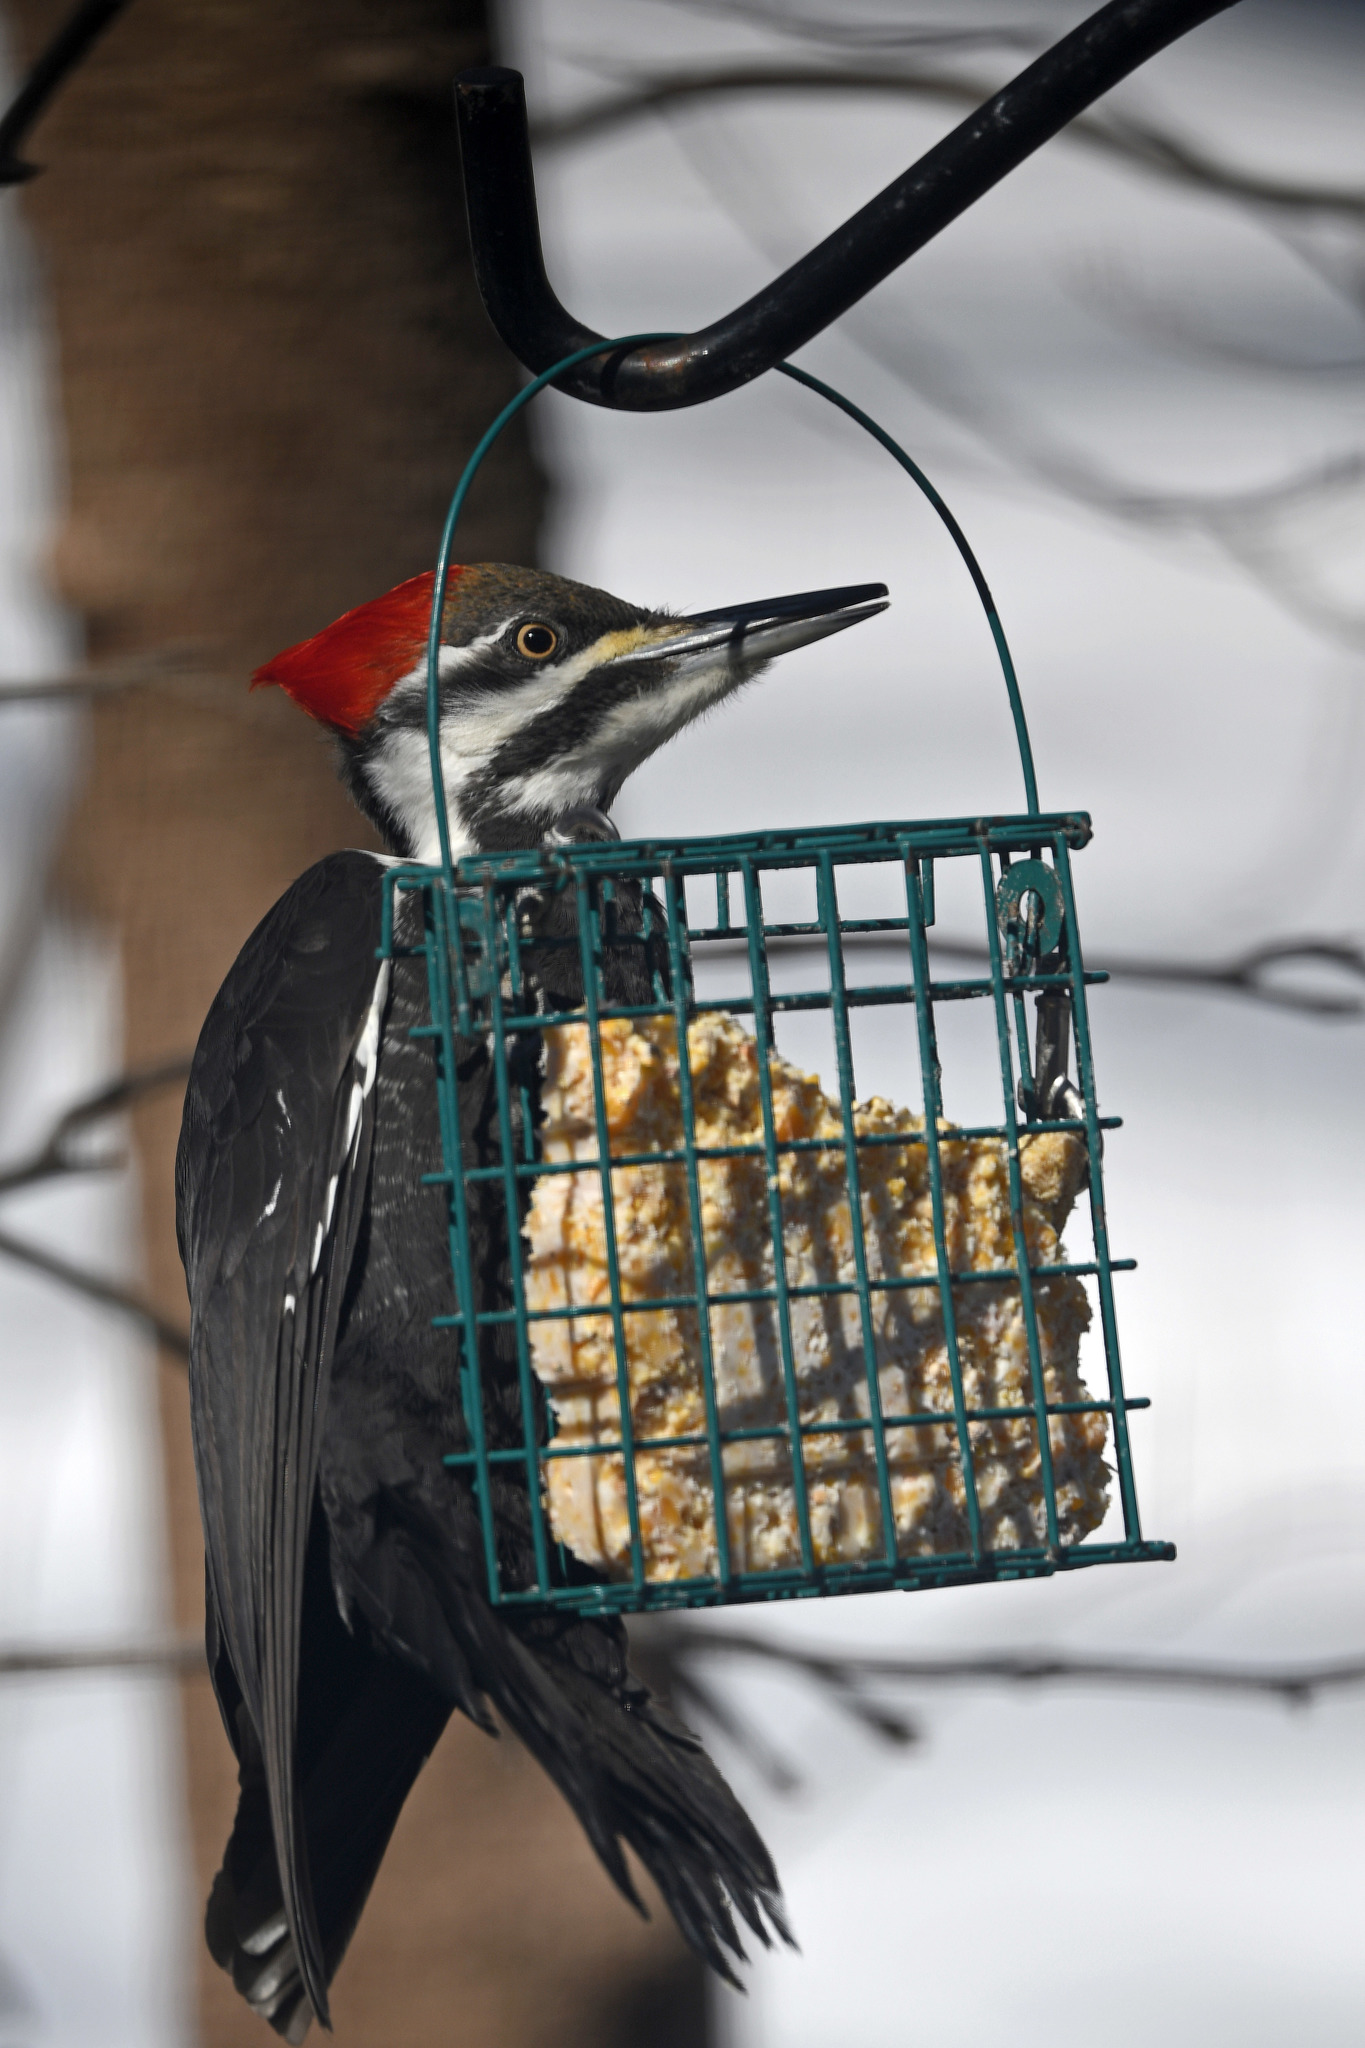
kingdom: Animalia
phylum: Chordata
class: Aves
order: Piciformes
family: Picidae
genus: Dryocopus
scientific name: Dryocopus pileatus
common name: Pileated woodpecker
